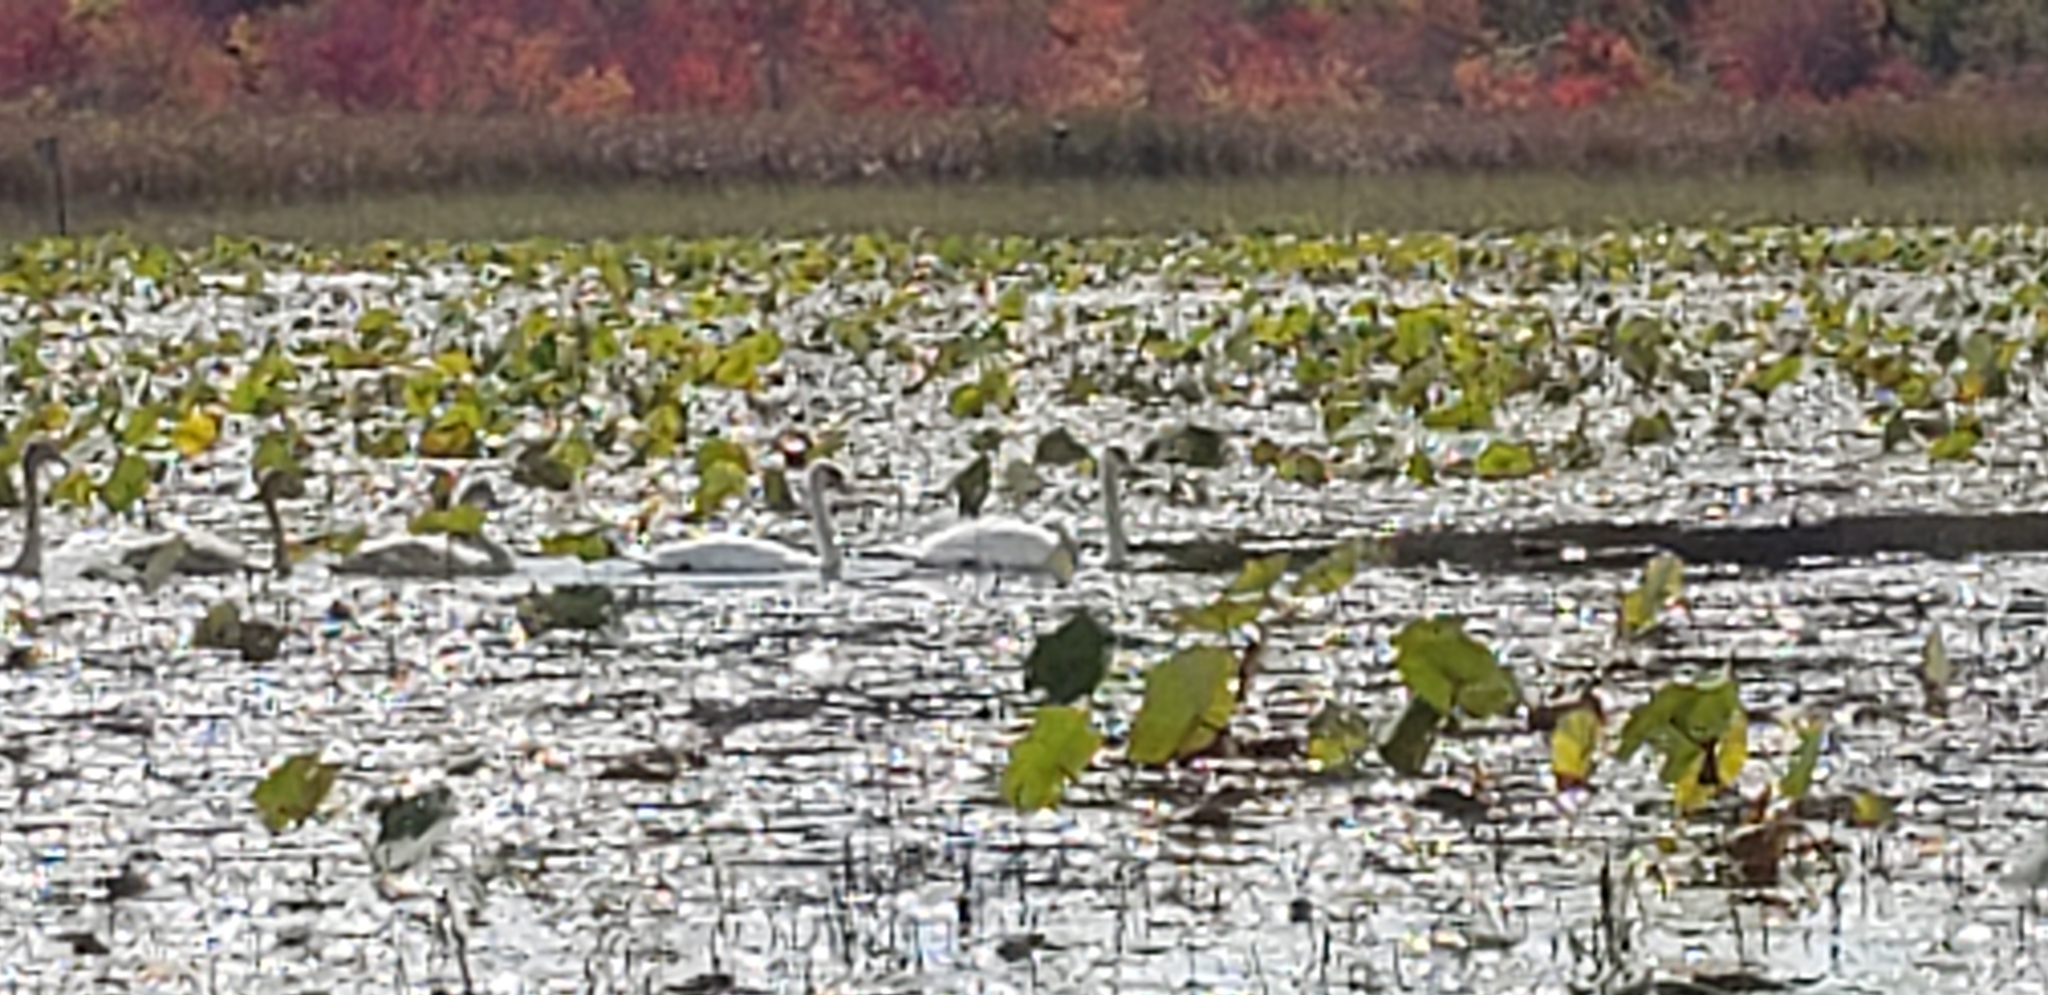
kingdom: Animalia
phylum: Chordata
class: Aves
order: Anseriformes
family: Anatidae
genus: Cygnus
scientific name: Cygnus olor
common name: Mute swan
